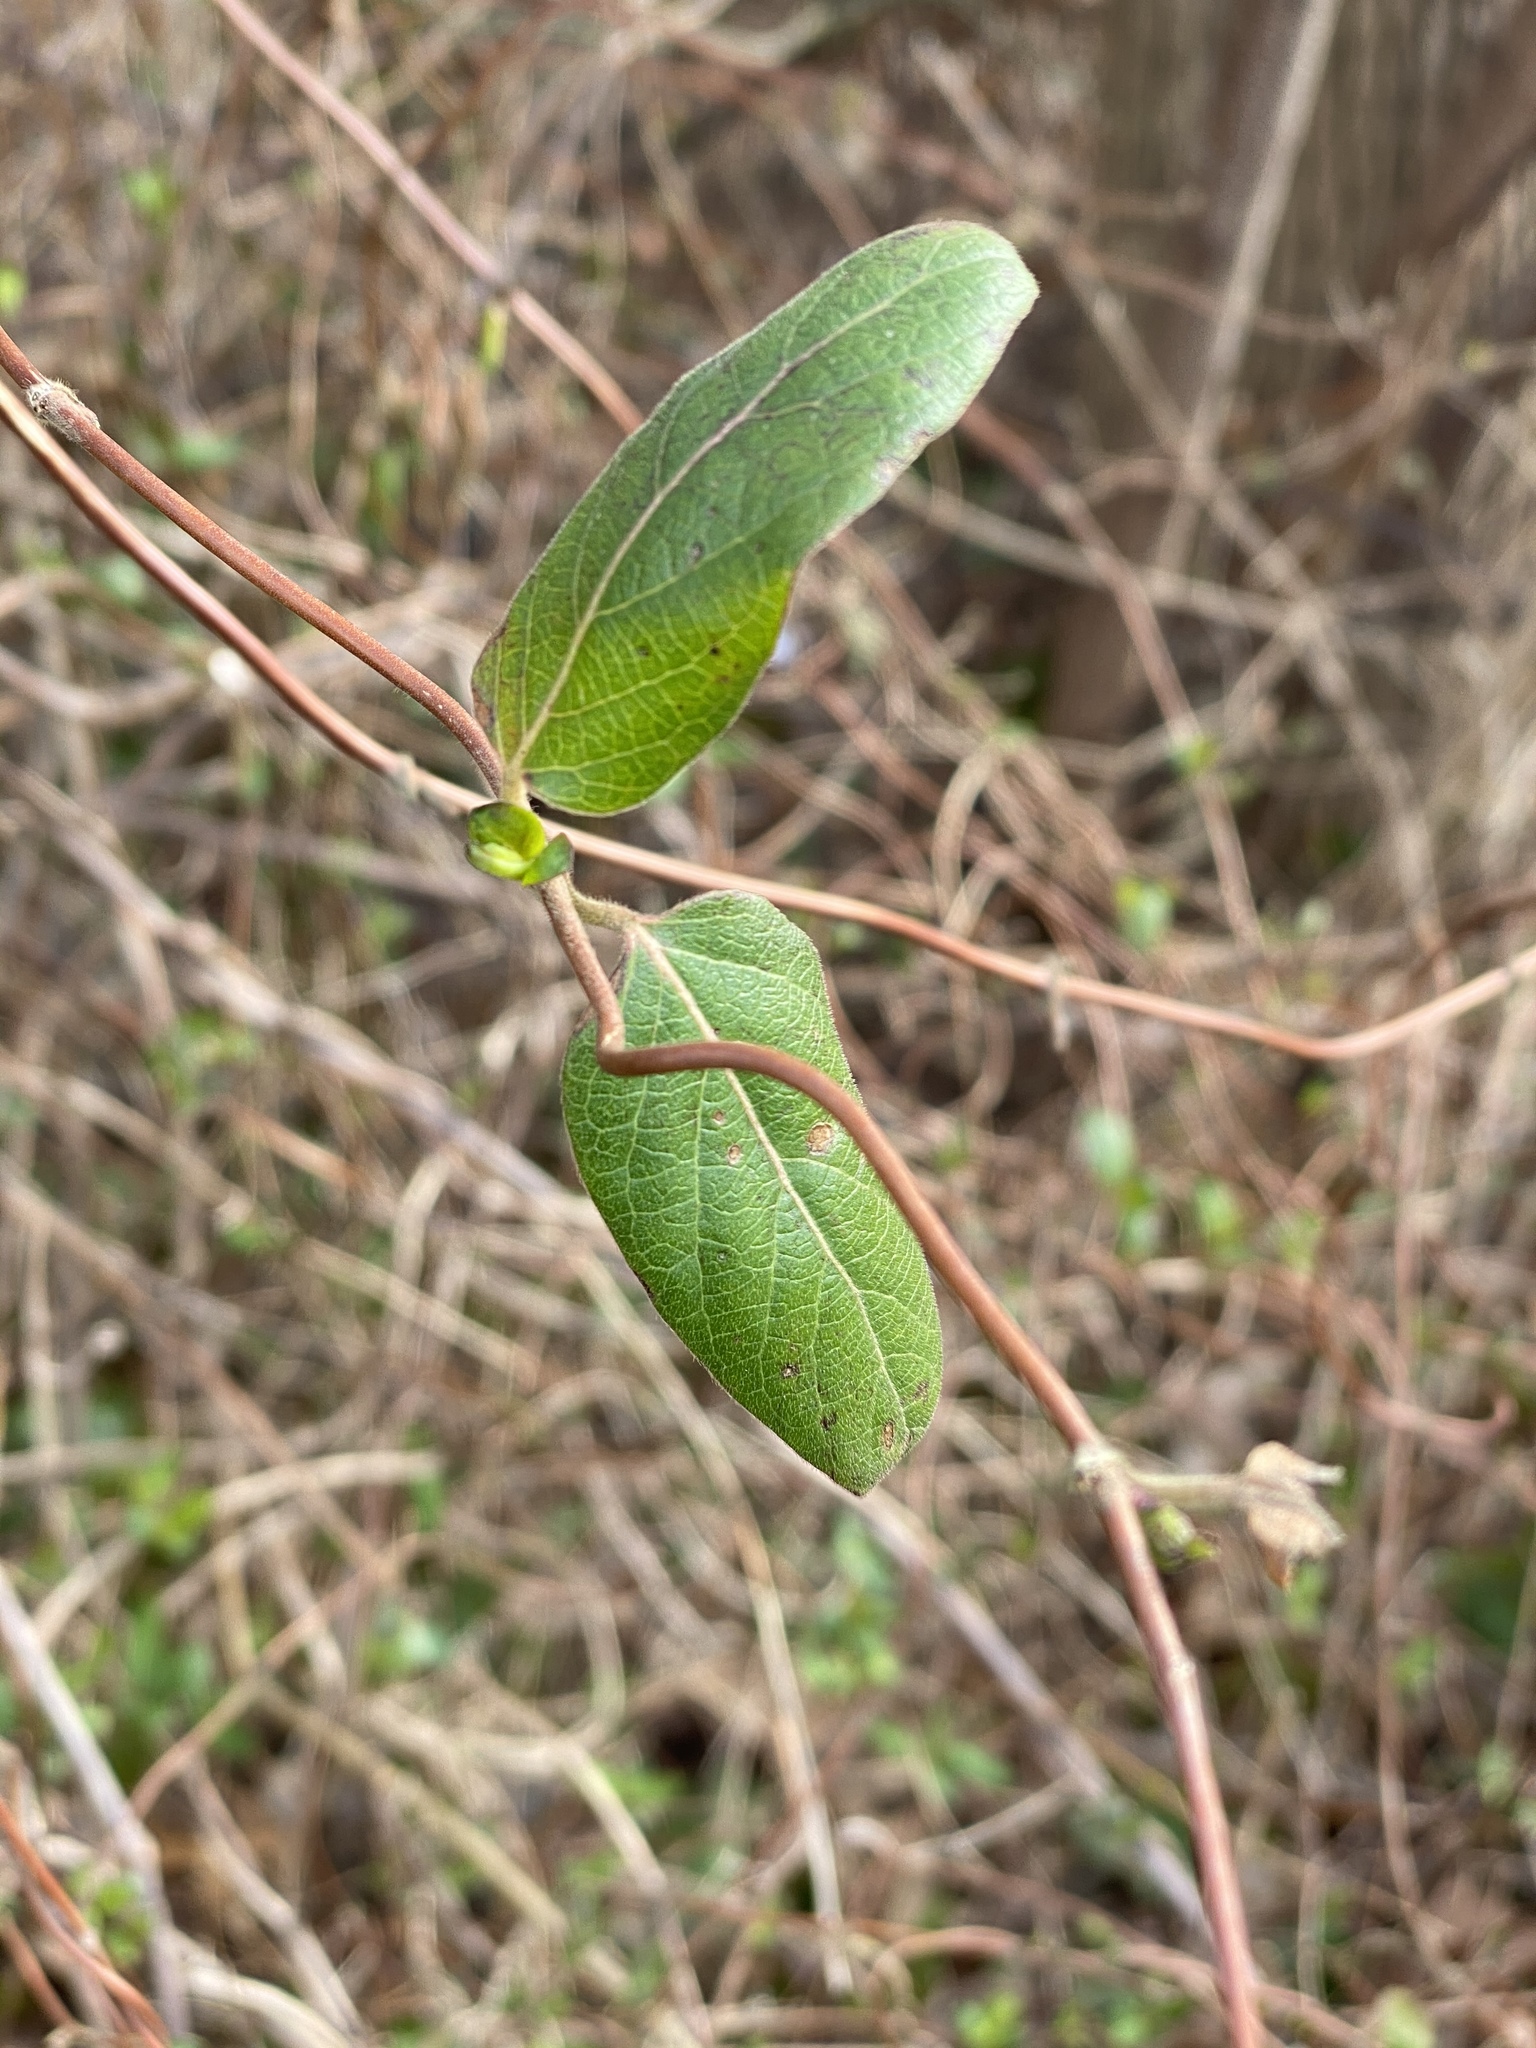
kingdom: Plantae
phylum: Tracheophyta
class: Magnoliopsida
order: Dipsacales
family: Caprifoliaceae
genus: Lonicera
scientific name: Lonicera japonica
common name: Japanese honeysuckle
